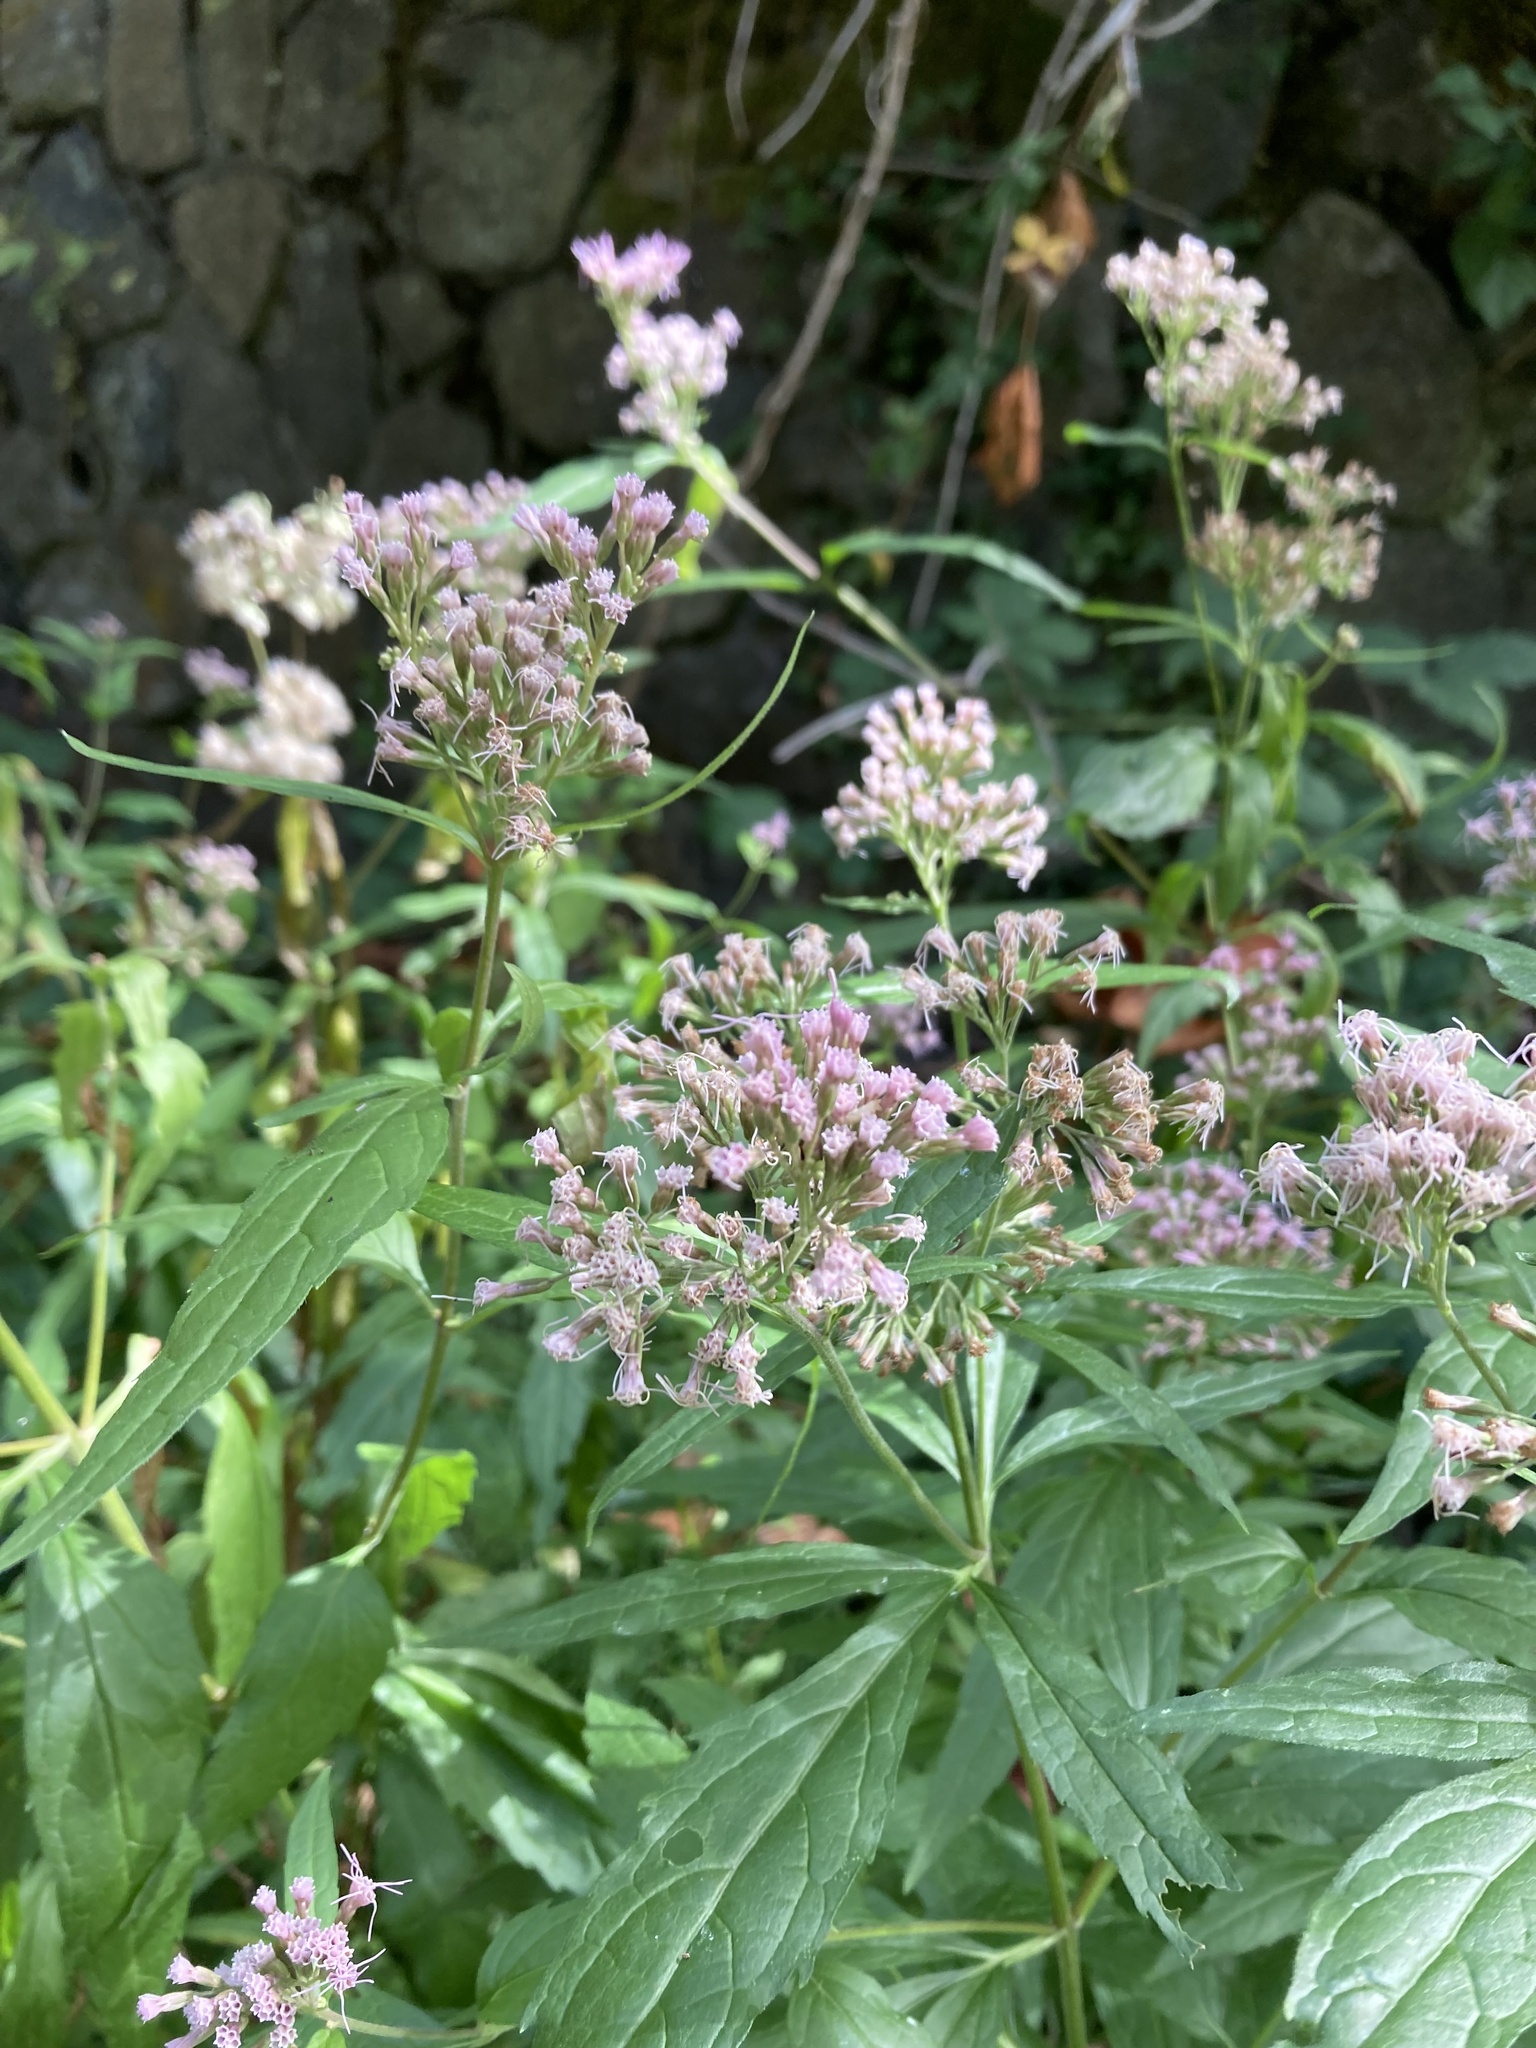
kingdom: Plantae
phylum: Tracheophyta
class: Magnoliopsida
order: Asterales
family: Asteraceae
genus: Eupatorium
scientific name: Eupatorium cannabinum
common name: Hemp-agrimony
